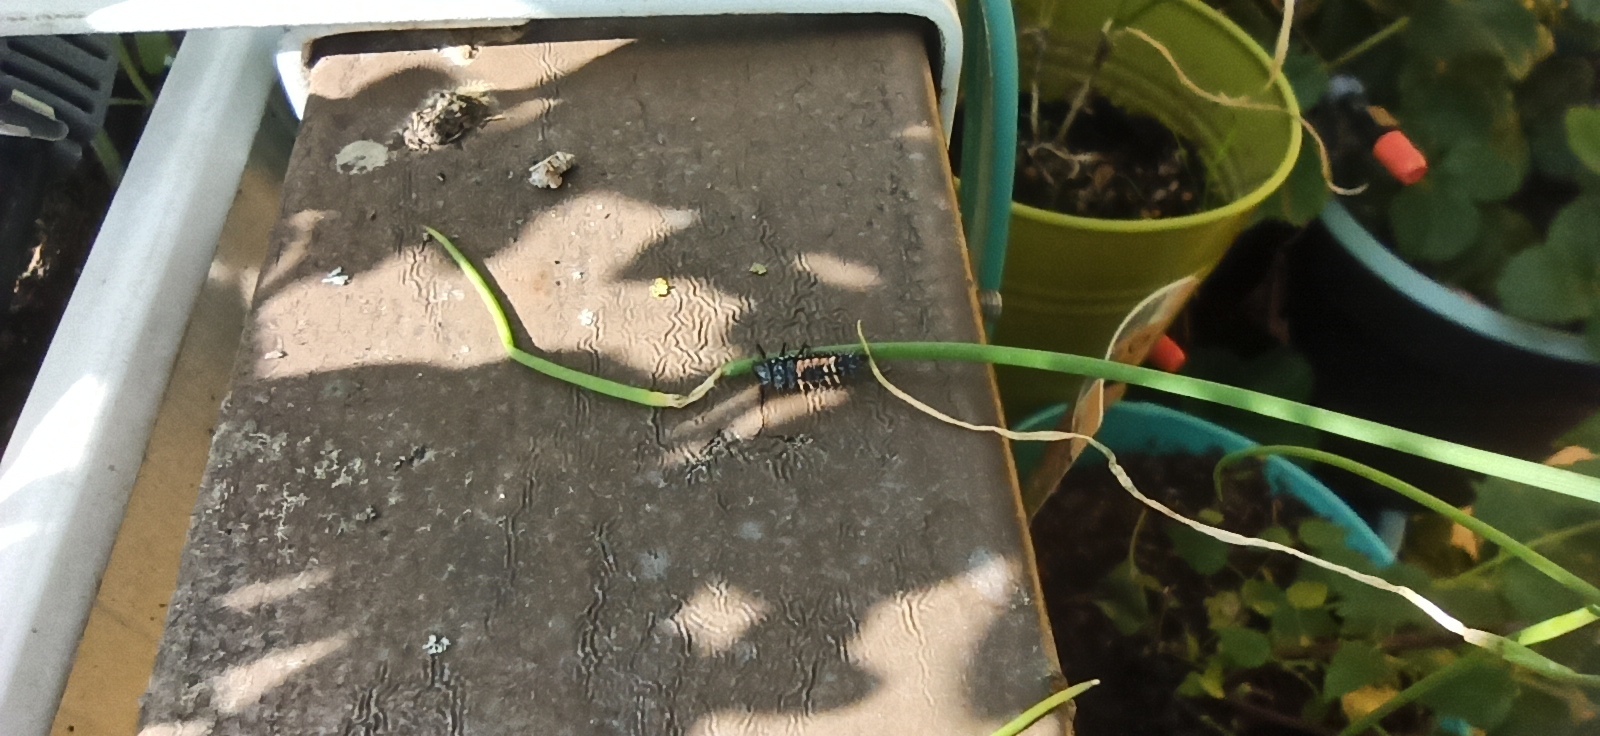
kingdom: Animalia
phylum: Arthropoda
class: Insecta
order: Coleoptera
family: Coccinellidae
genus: Harmonia
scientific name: Harmonia axyridis
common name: Harlequin ladybird
